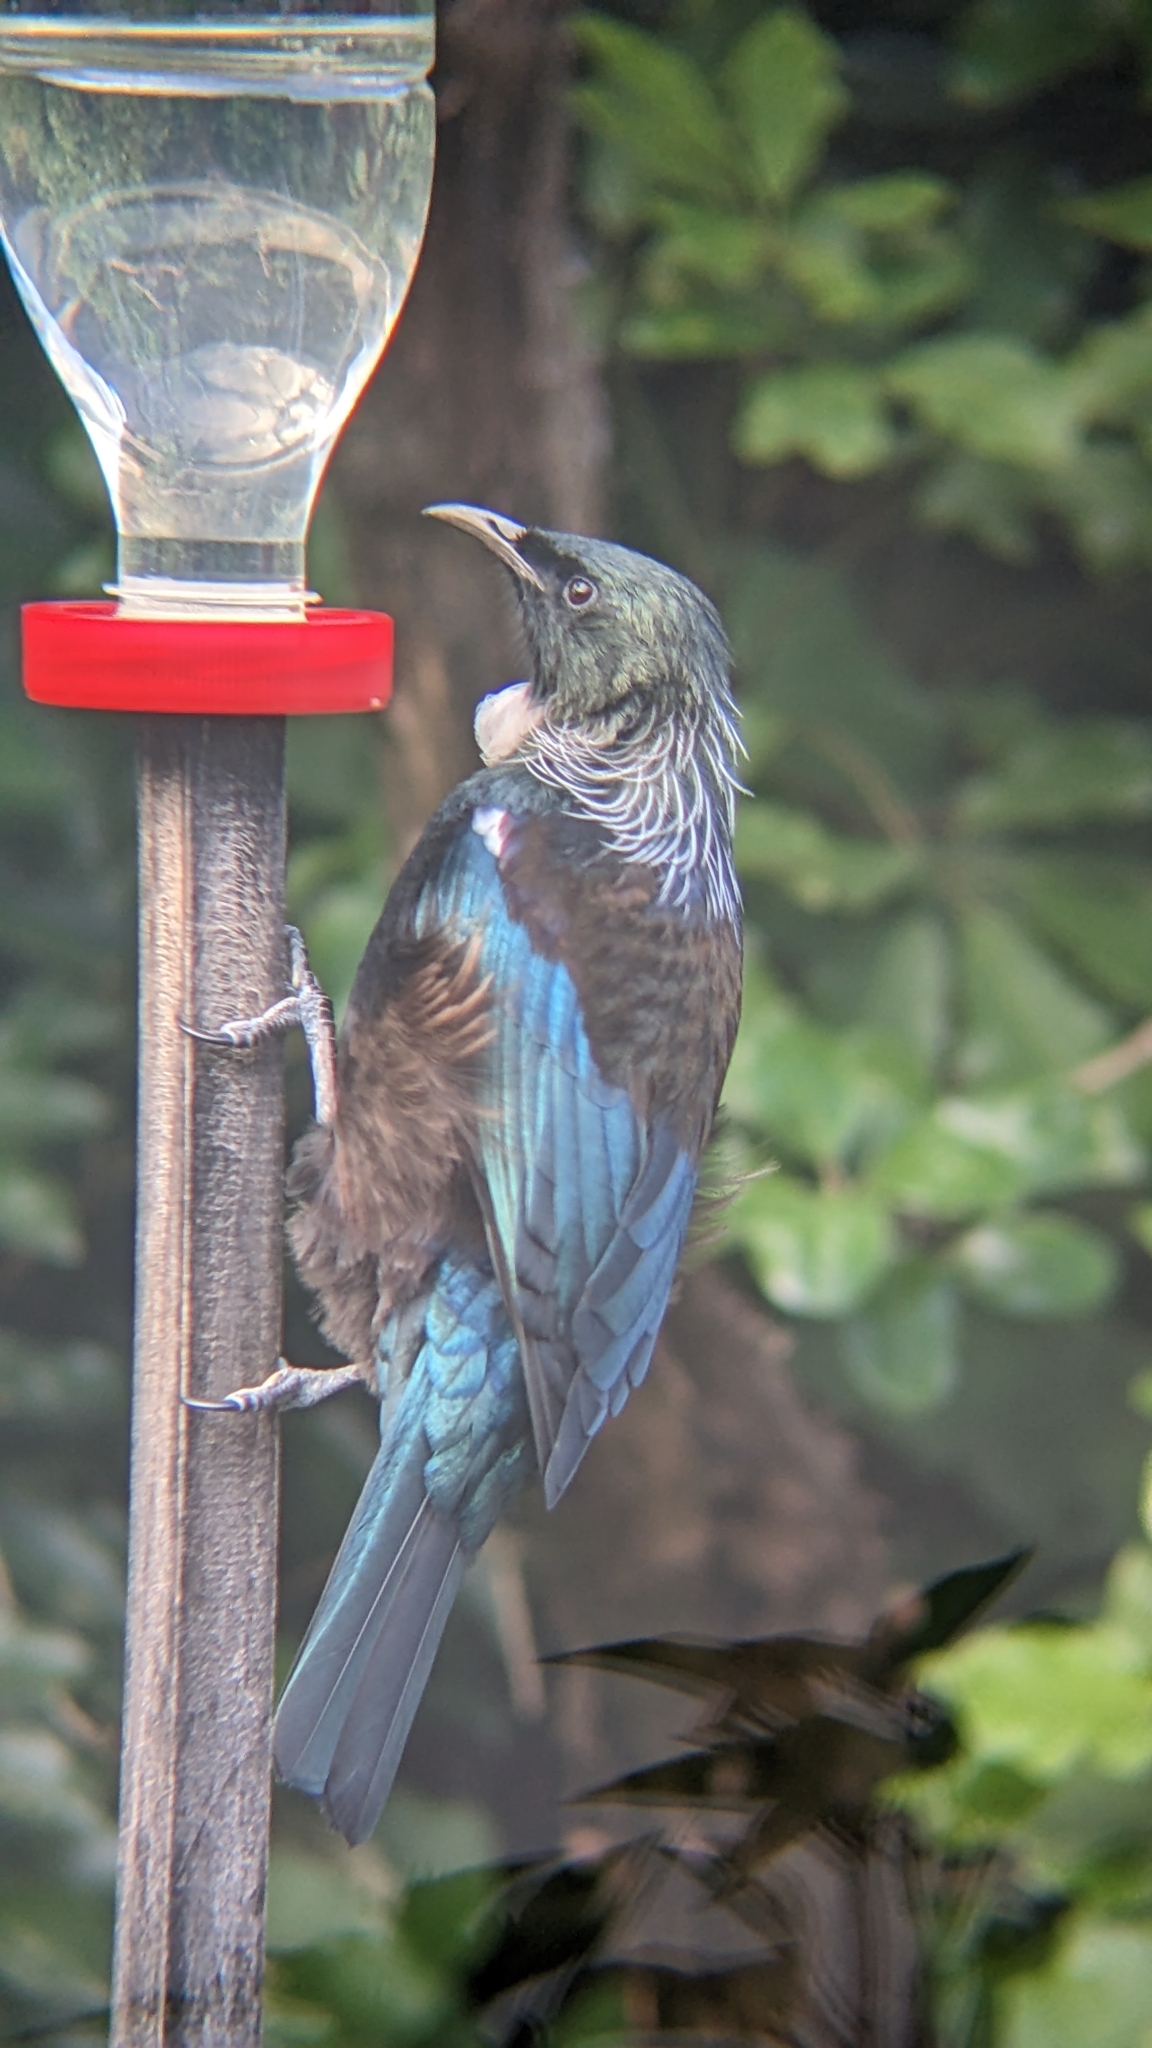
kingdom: Animalia
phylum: Chordata
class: Aves
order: Passeriformes
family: Meliphagidae
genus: Prosthemadera
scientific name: Prosthemadera novaeseelandiae
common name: Tui
